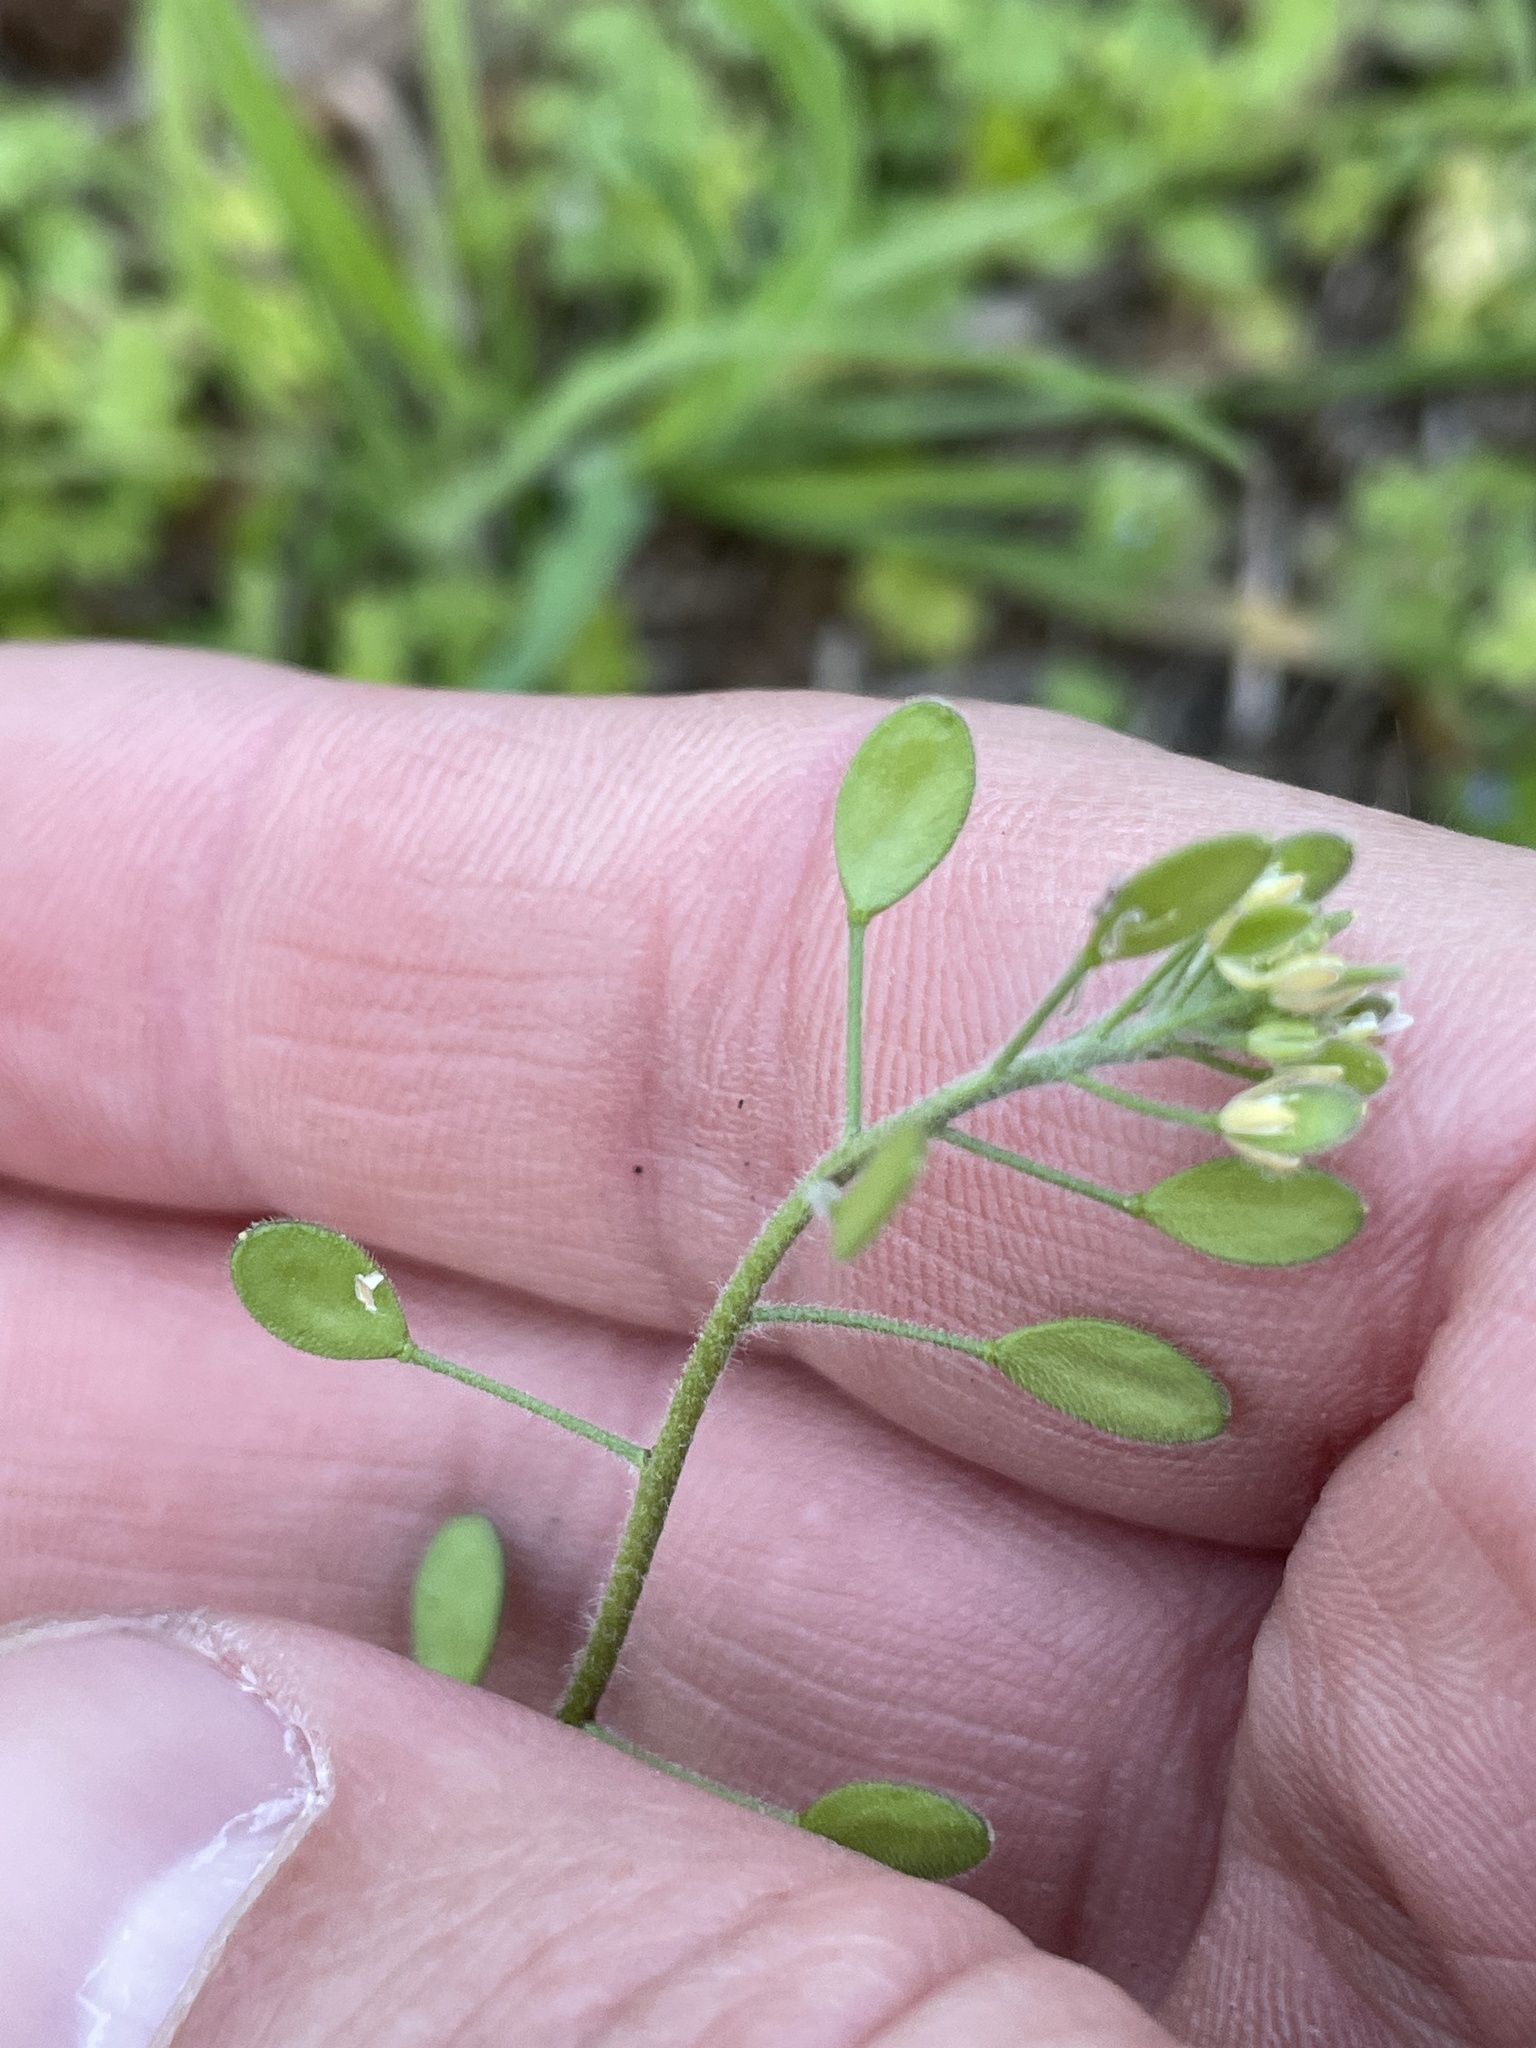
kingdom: Plantae
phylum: Tracheophyta
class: Magnoliopsida
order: Brassicales
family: Brassicaceae
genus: Tomostima
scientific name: Tomostima platycarpa
